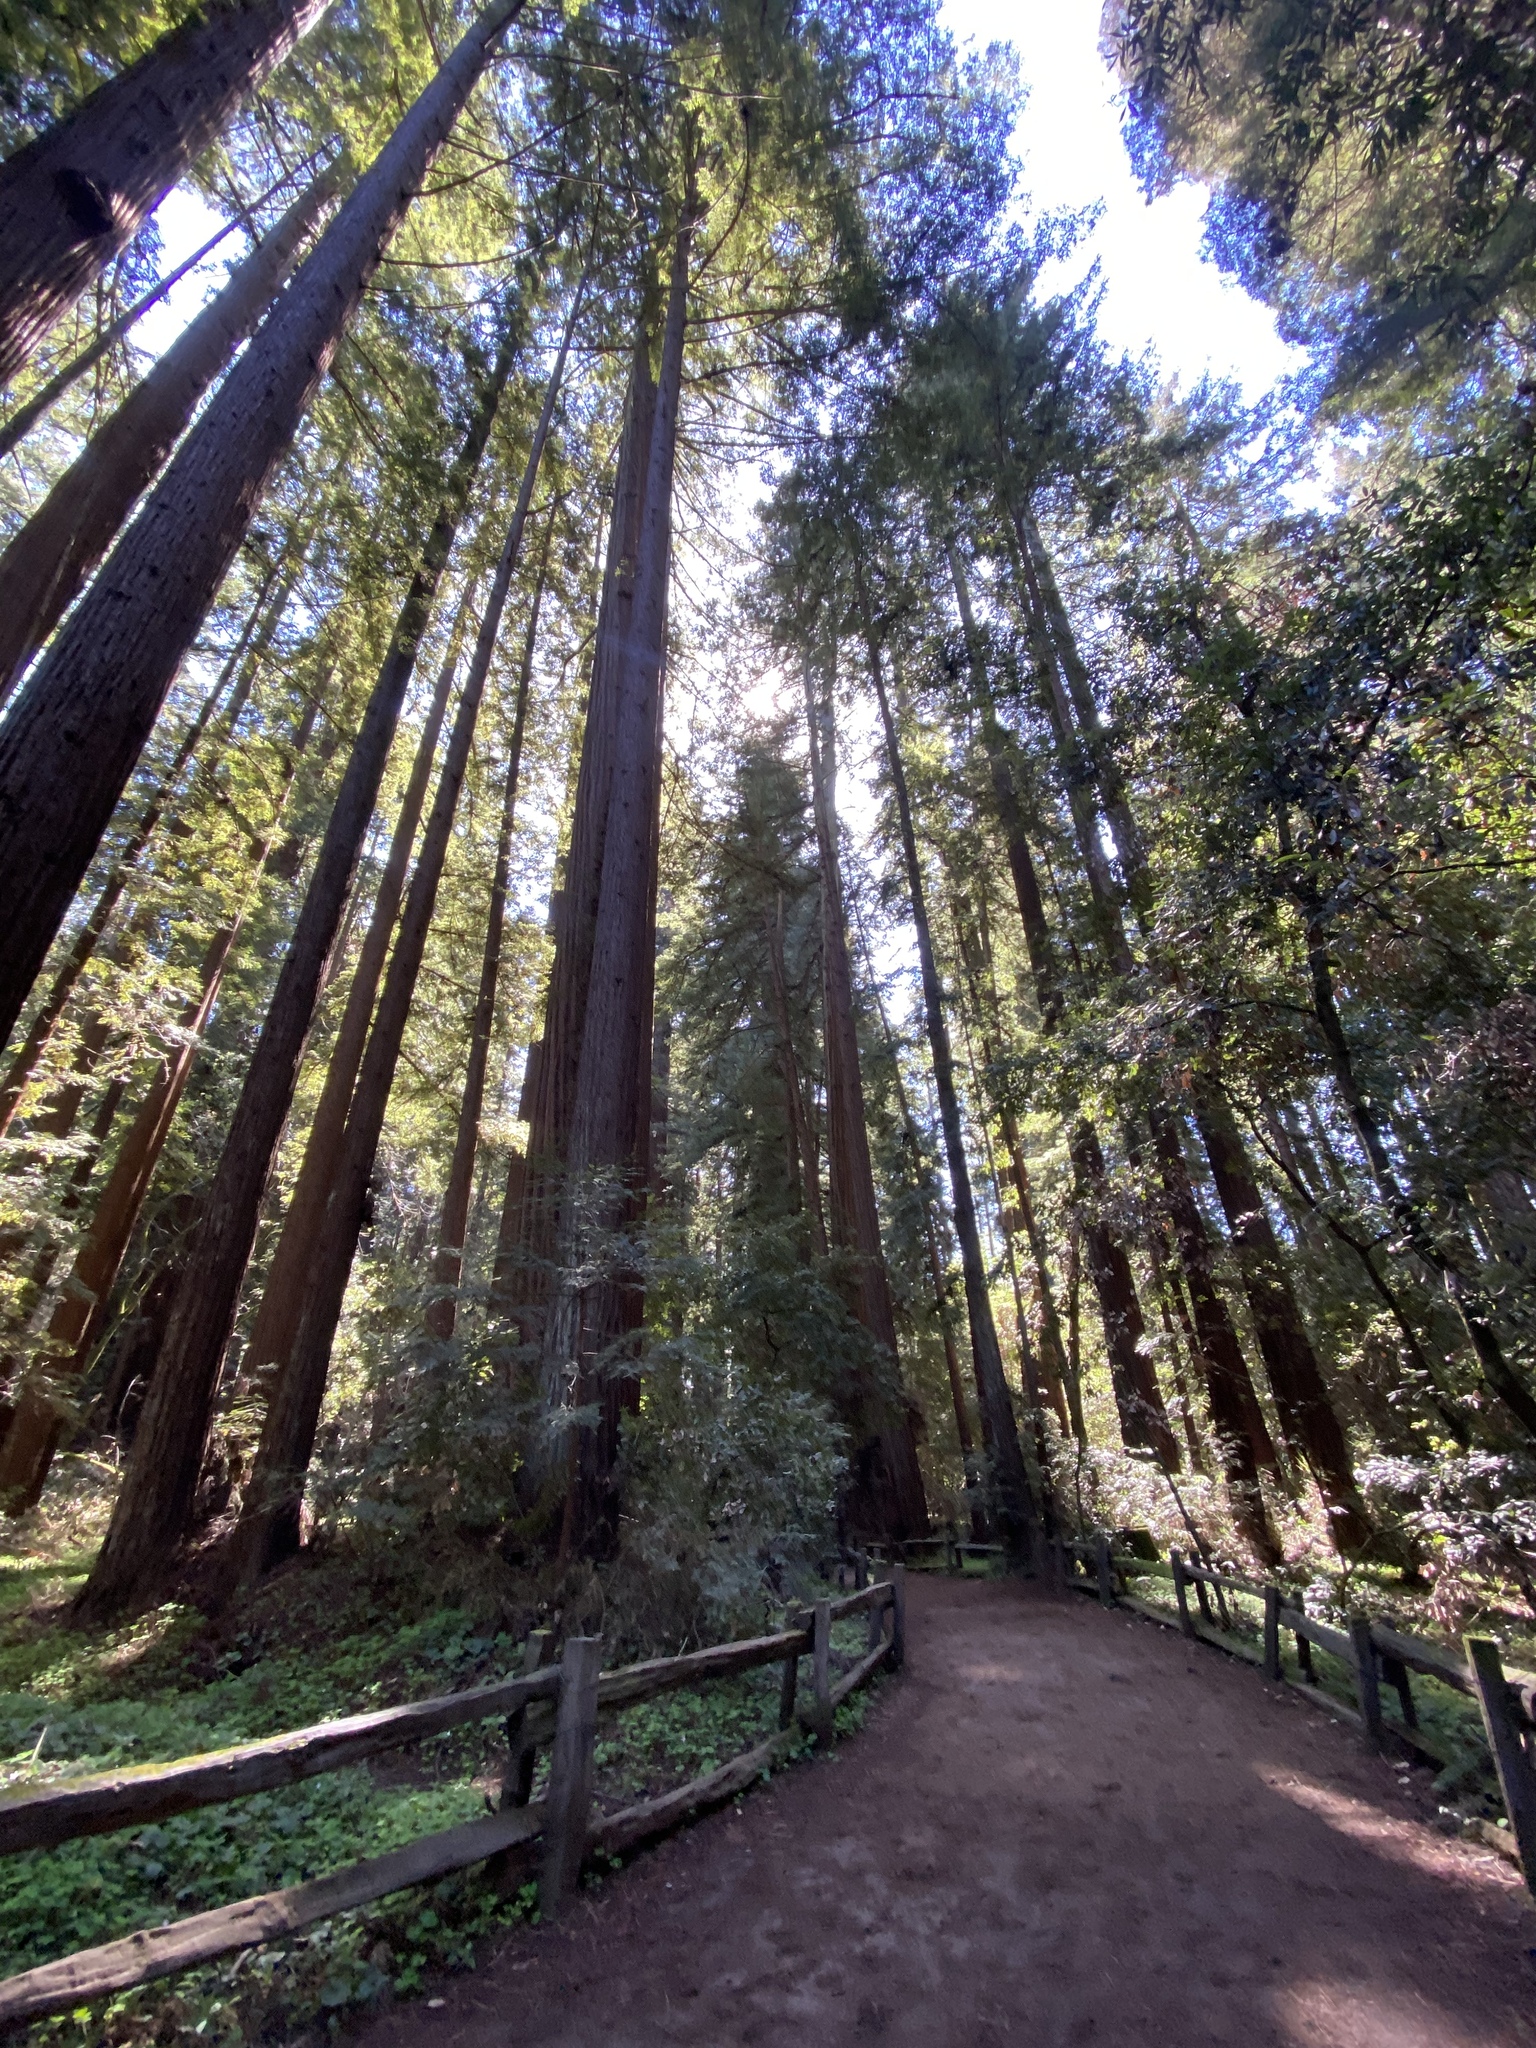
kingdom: Plantae
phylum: Tracheophyta
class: Pinopsida
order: Pinales
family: Cupressaceae
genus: Sequoia
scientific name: Sequoia sempervirens
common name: Coast redwood
